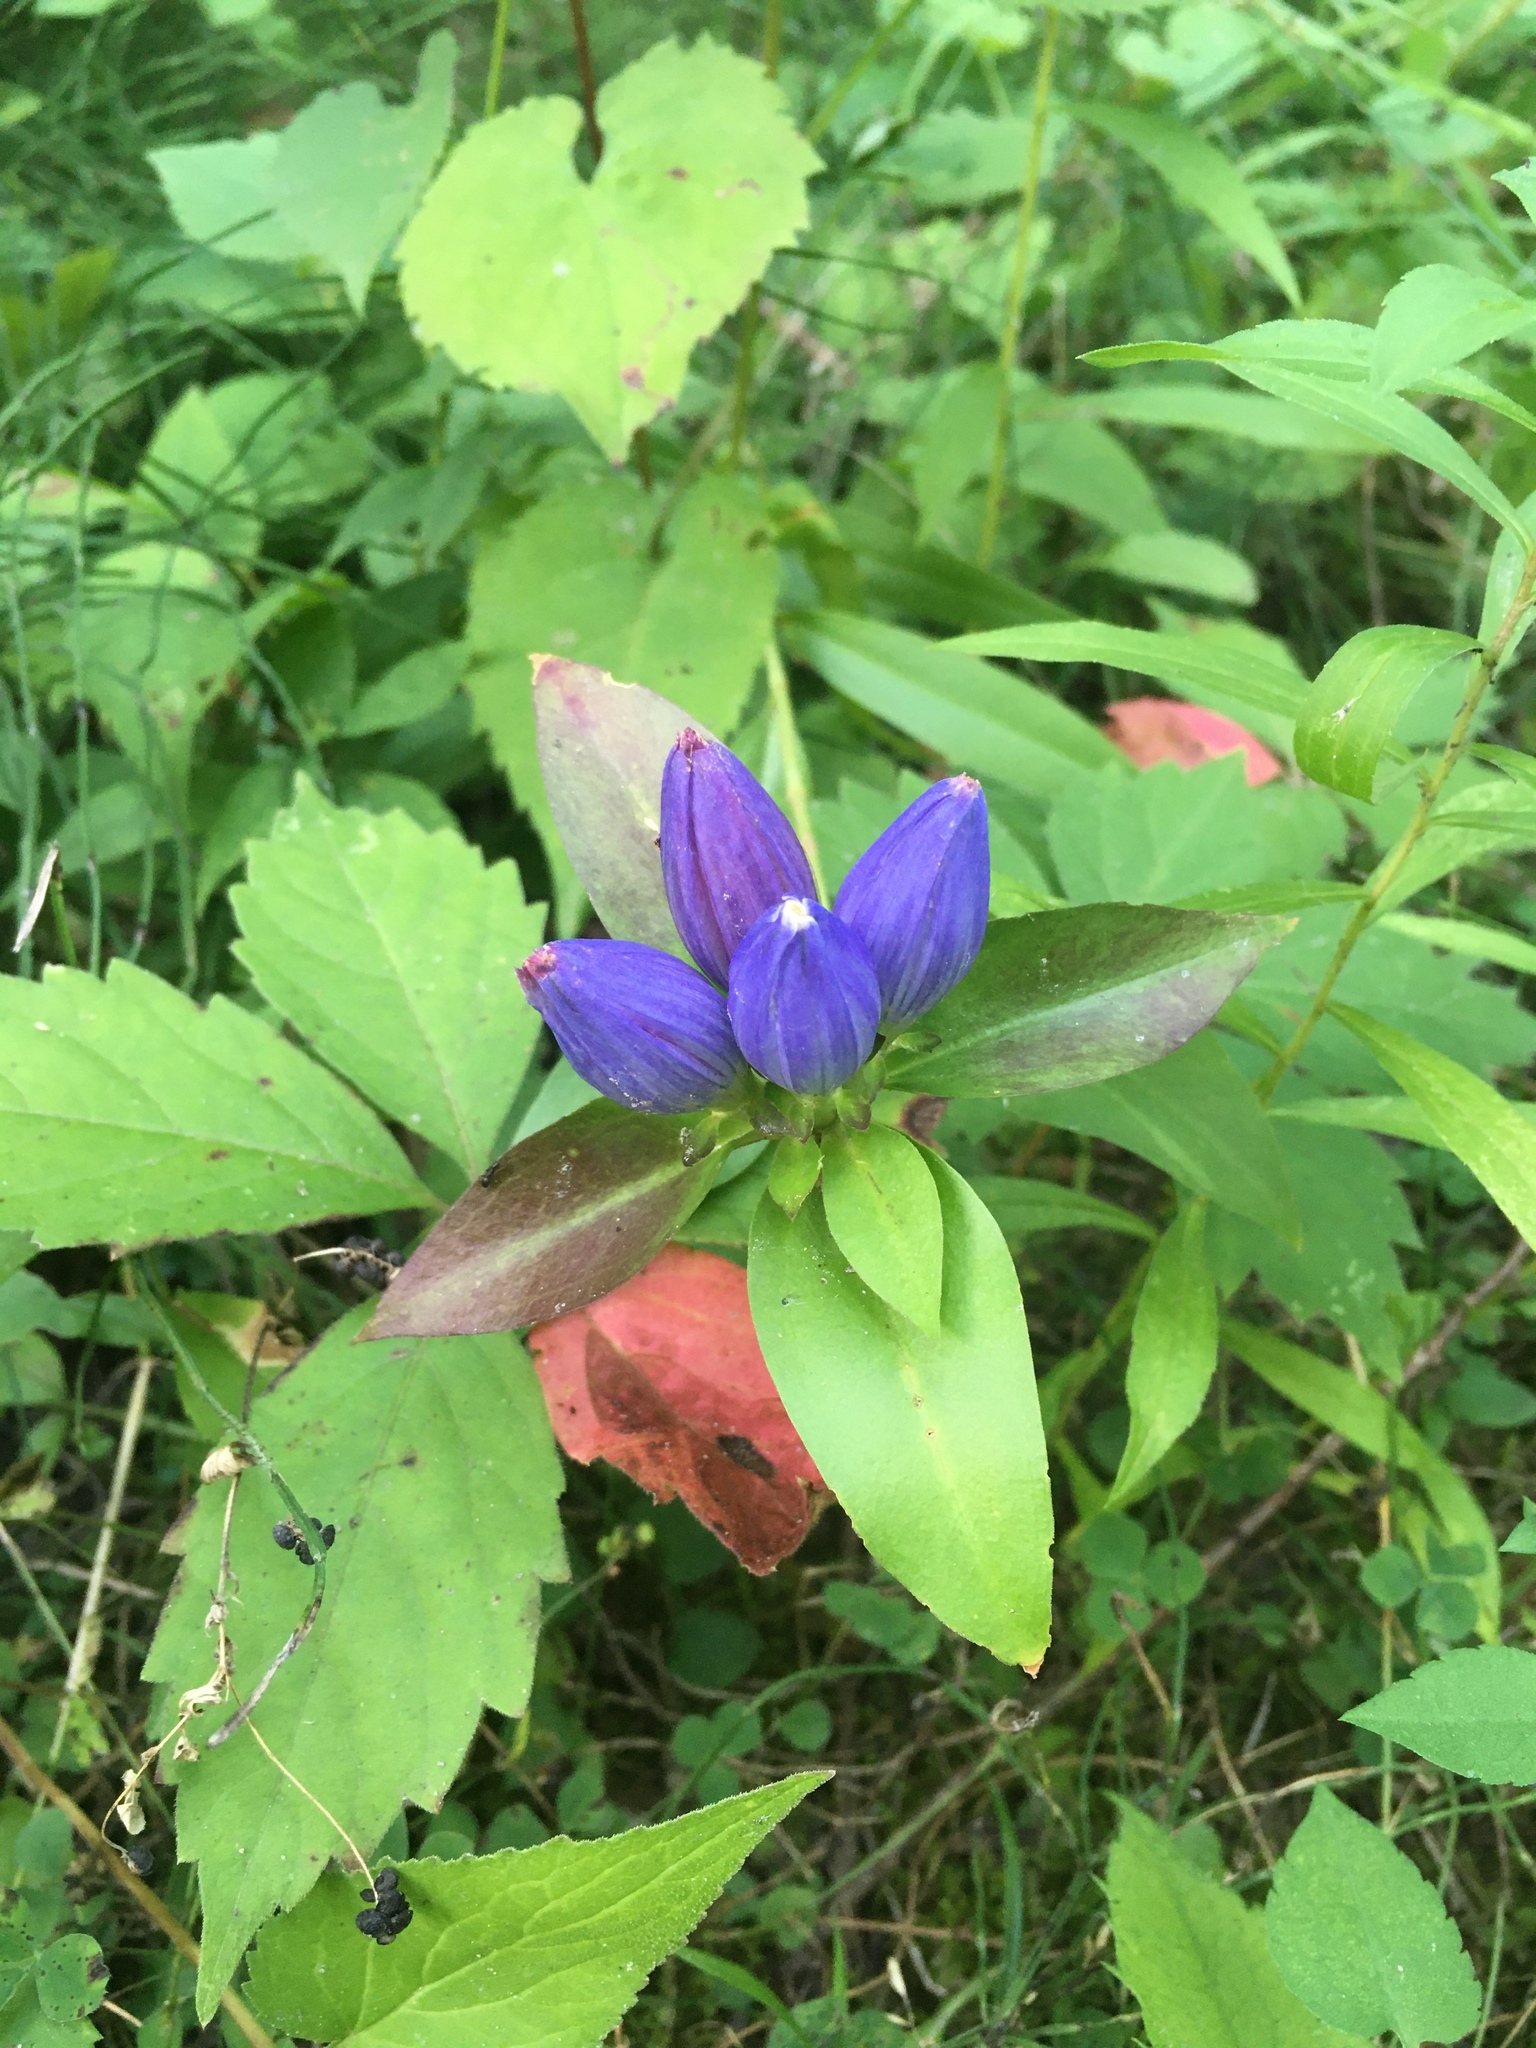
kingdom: Plantae
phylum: Tracheophyta
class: Magnoliopsida
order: Gentianales
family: Gentianaceae
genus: Gentiana
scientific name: Gentiana andrewsii
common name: Bottle gentian
